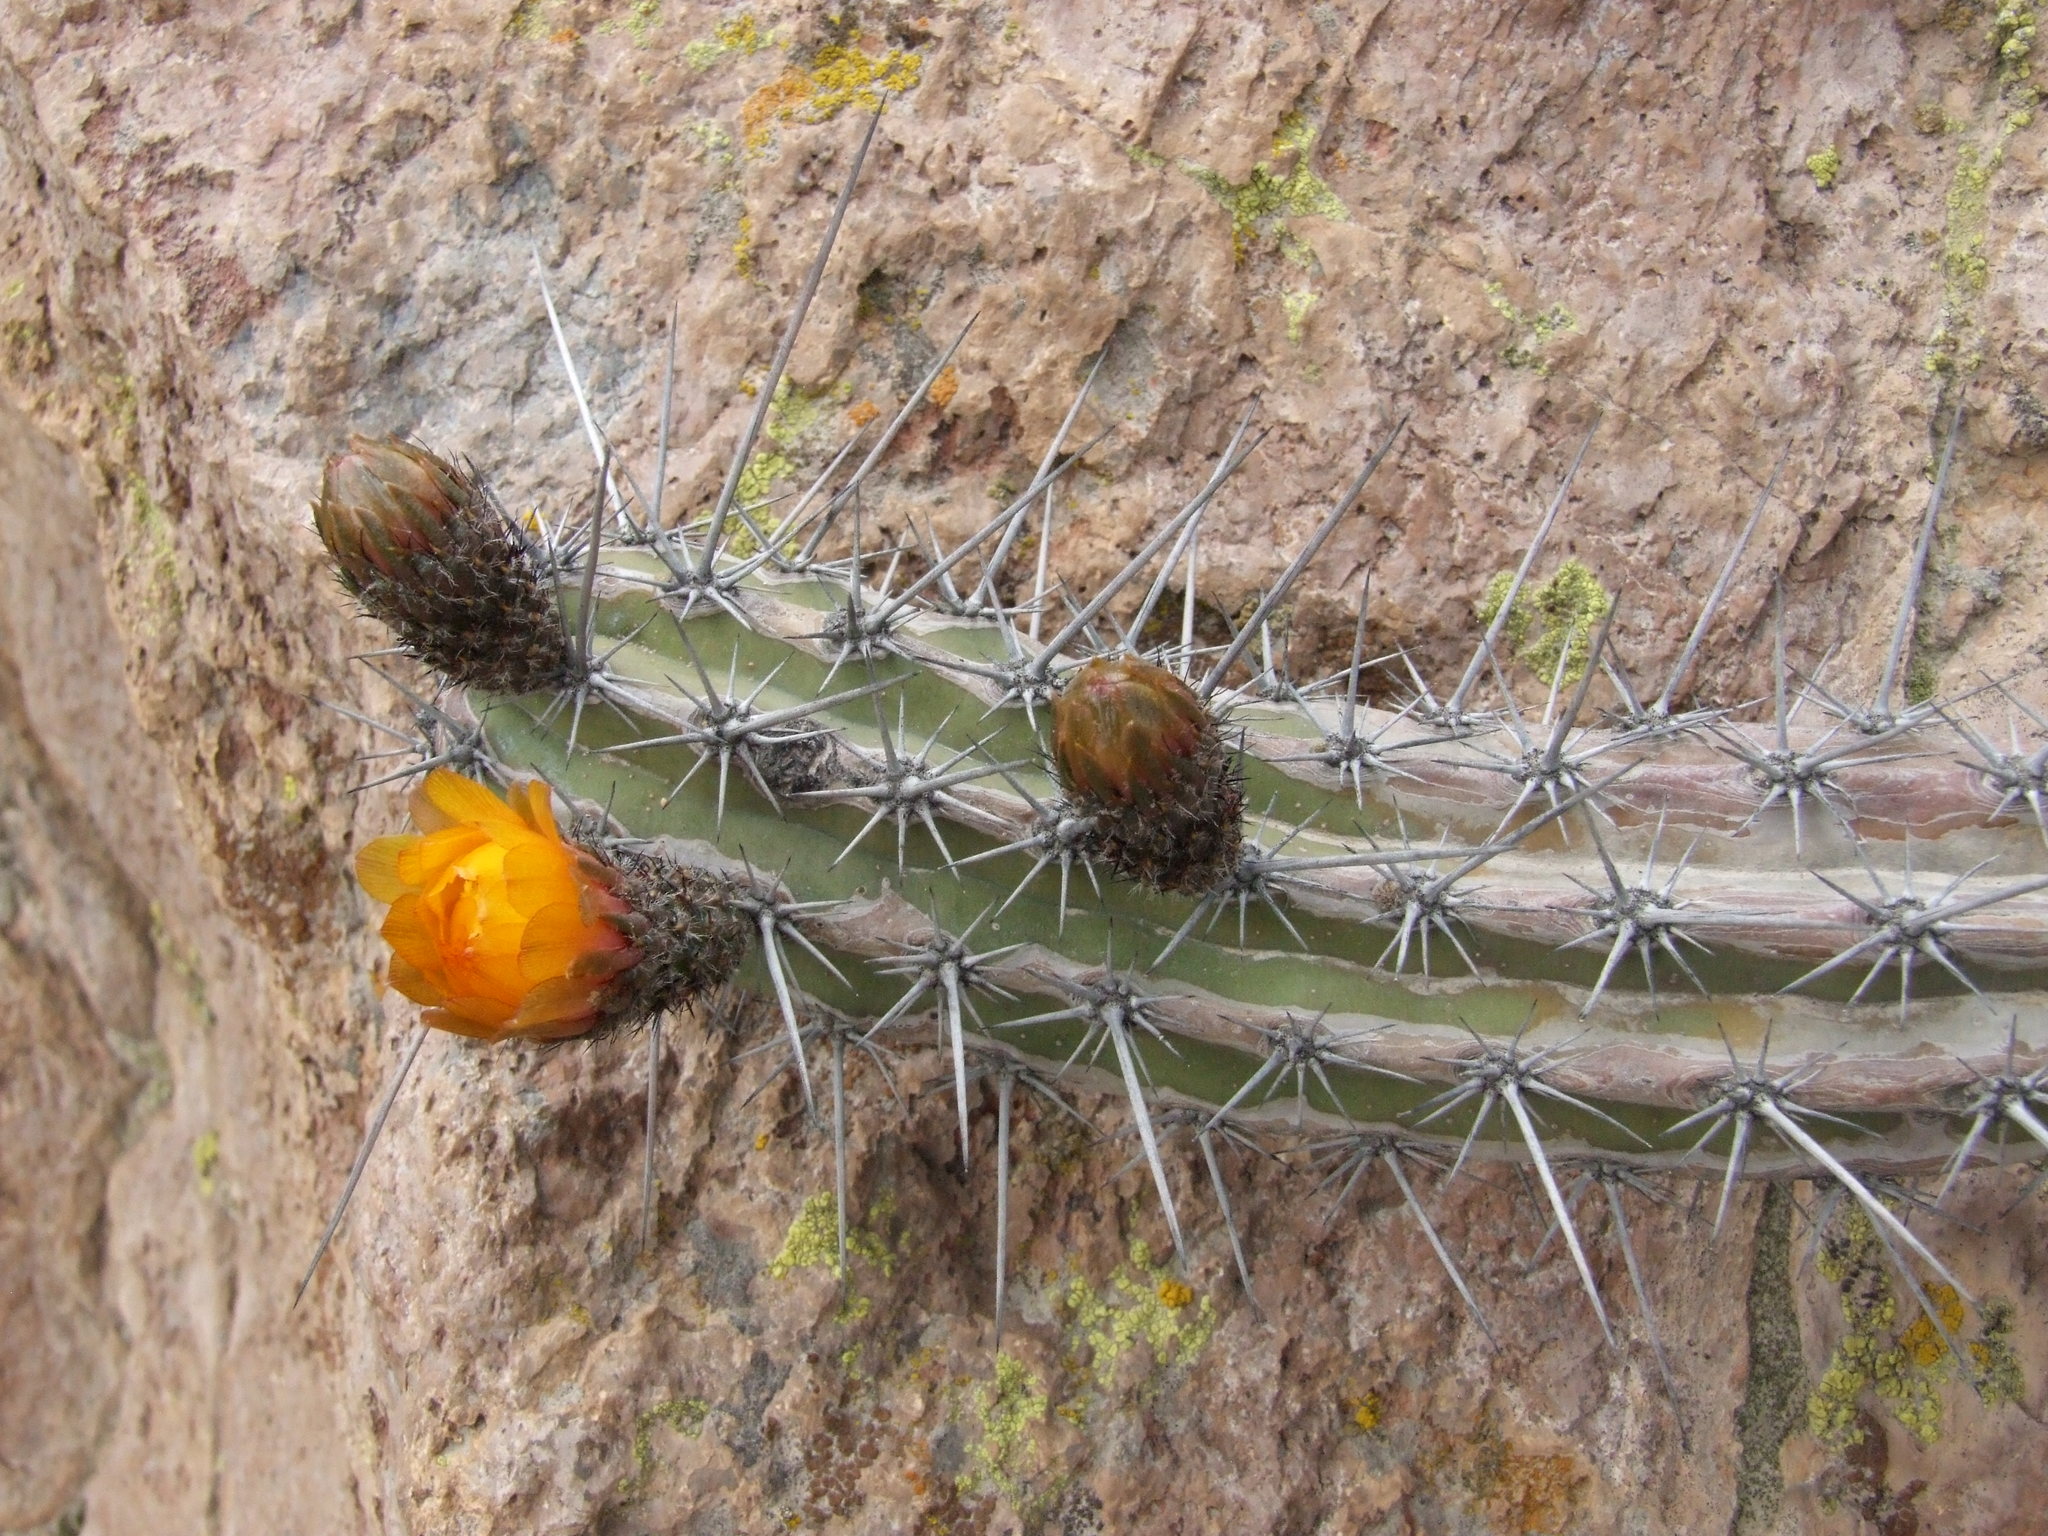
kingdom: Plantae
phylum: Tracheophyta
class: Magnoliopsida
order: Caryophyllales
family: Cactaceae
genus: Corryocactus
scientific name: Corryocactus aureus
